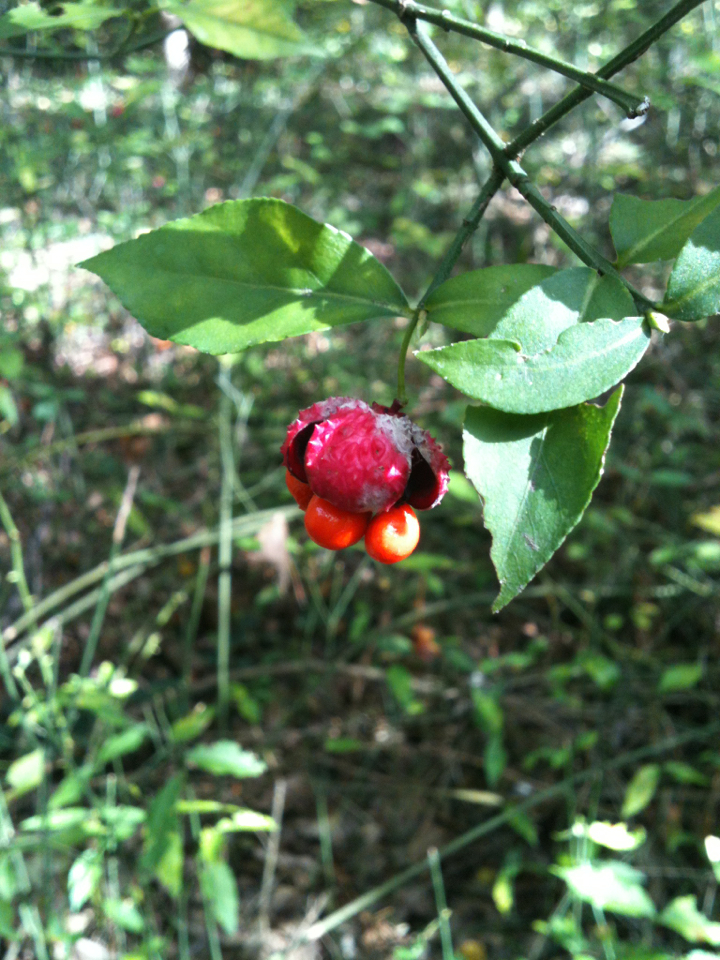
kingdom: Plantae
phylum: Tracheophyta
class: Magnoliopsida
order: Celastrales
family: Celastraceae
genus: Euonymus
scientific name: Euonymus americanus
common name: Bursting-heart
